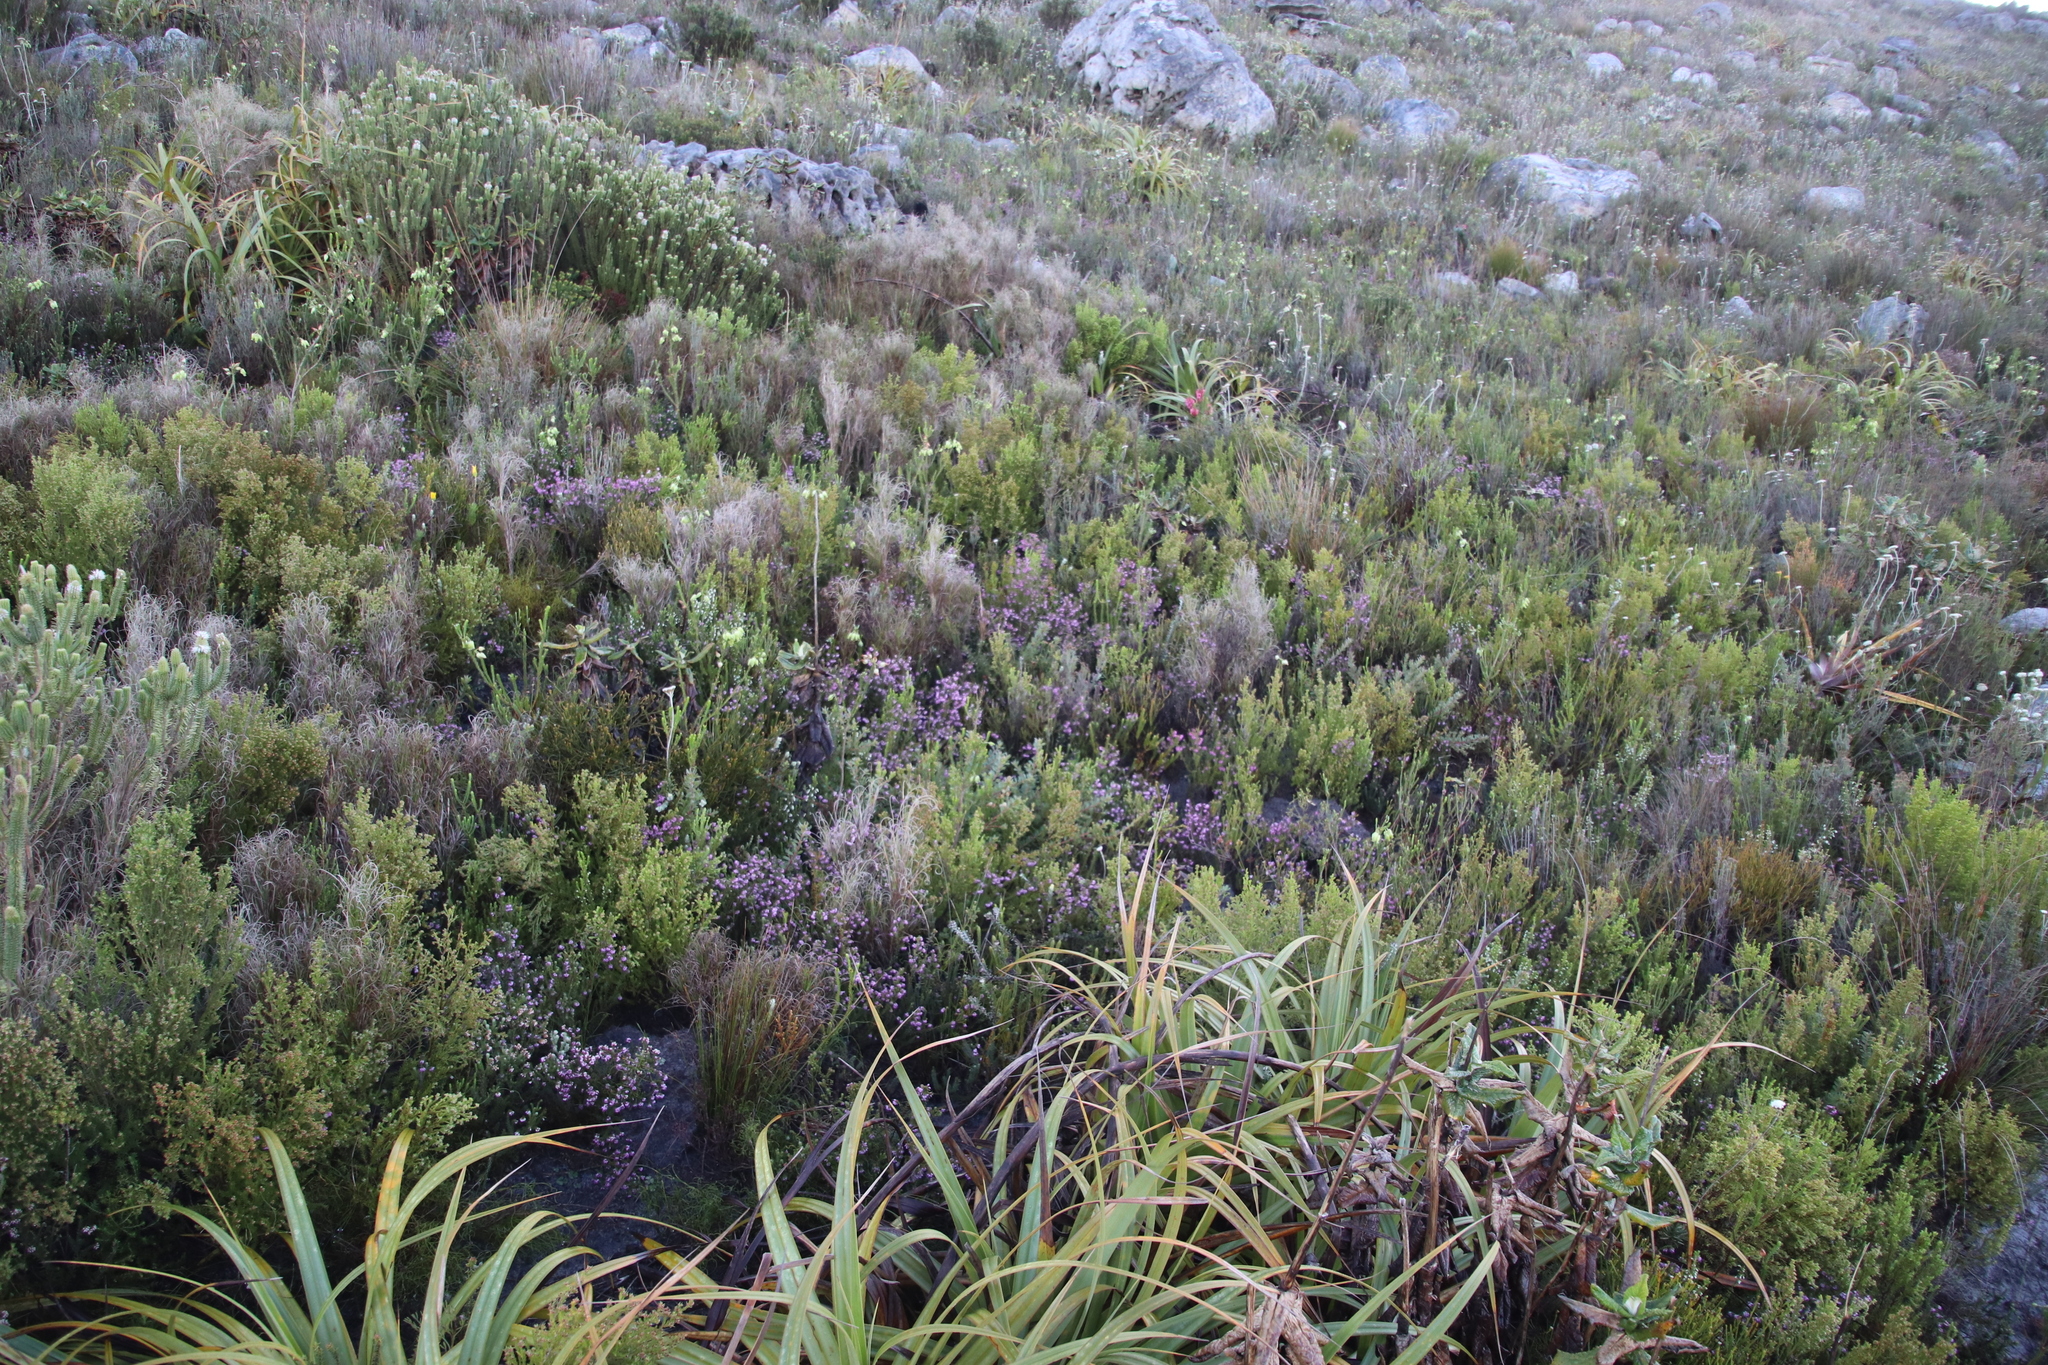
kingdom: Plantae
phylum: Tracheophyta
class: Magnoliopsida
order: Ericales
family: Ericaceae
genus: Erica
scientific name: Erica glabella
